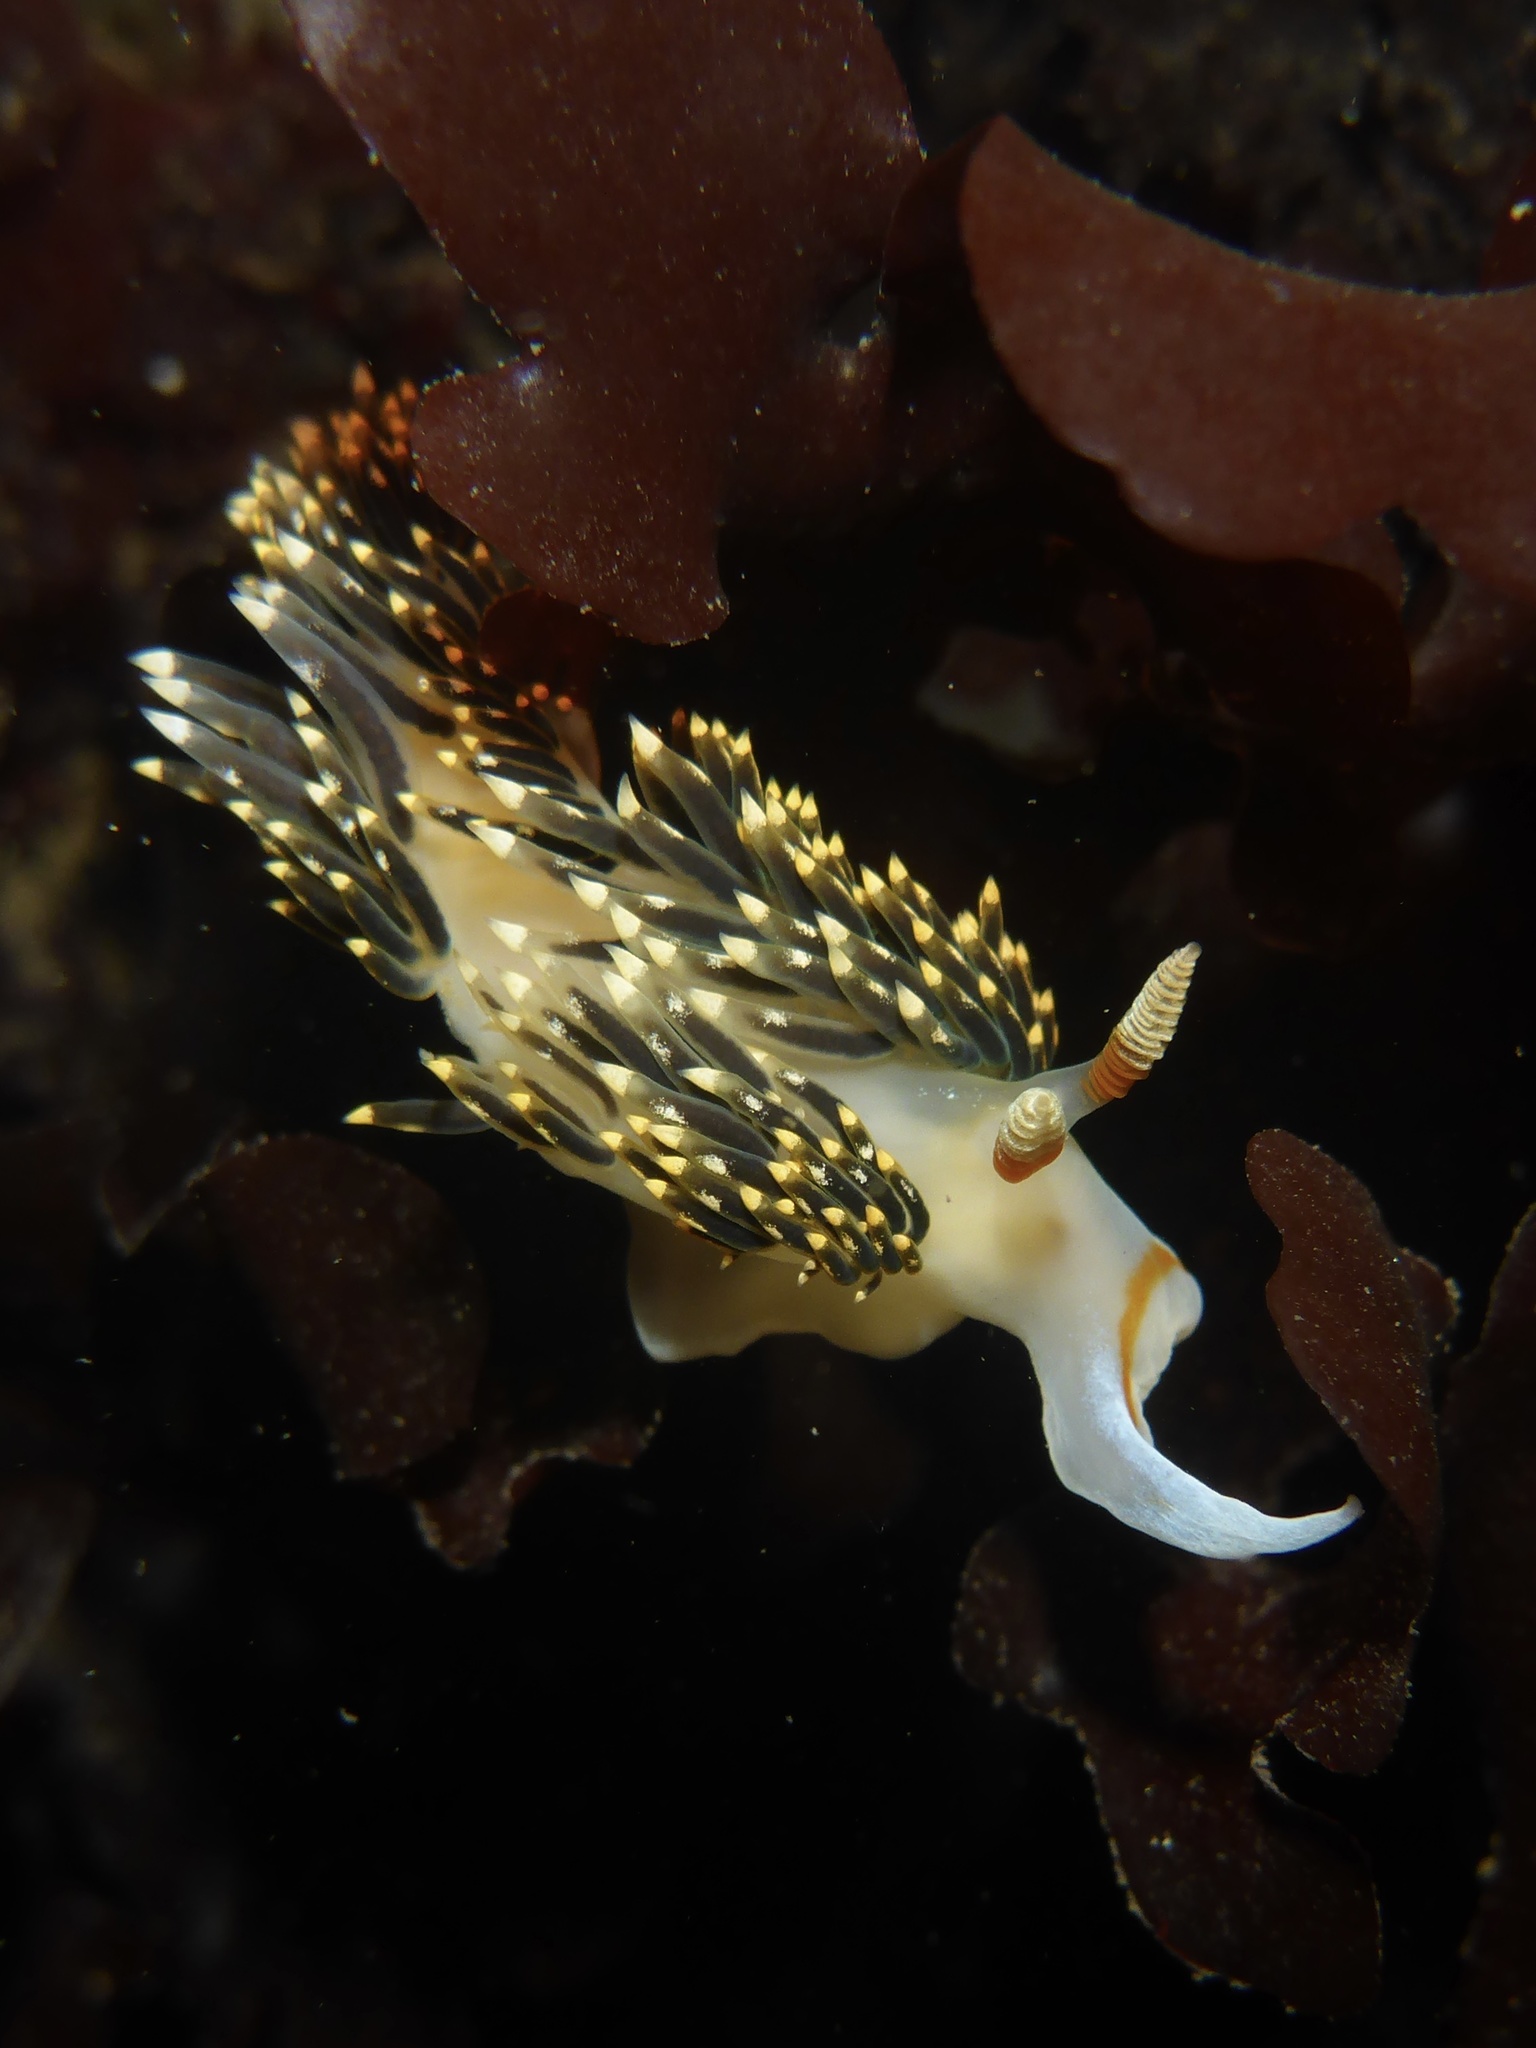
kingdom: Animalia
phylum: Mollusca
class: Gastropoda
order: Nudibranchia
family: Facelinidae
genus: Phidiana
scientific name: Phidiana hiltoni
